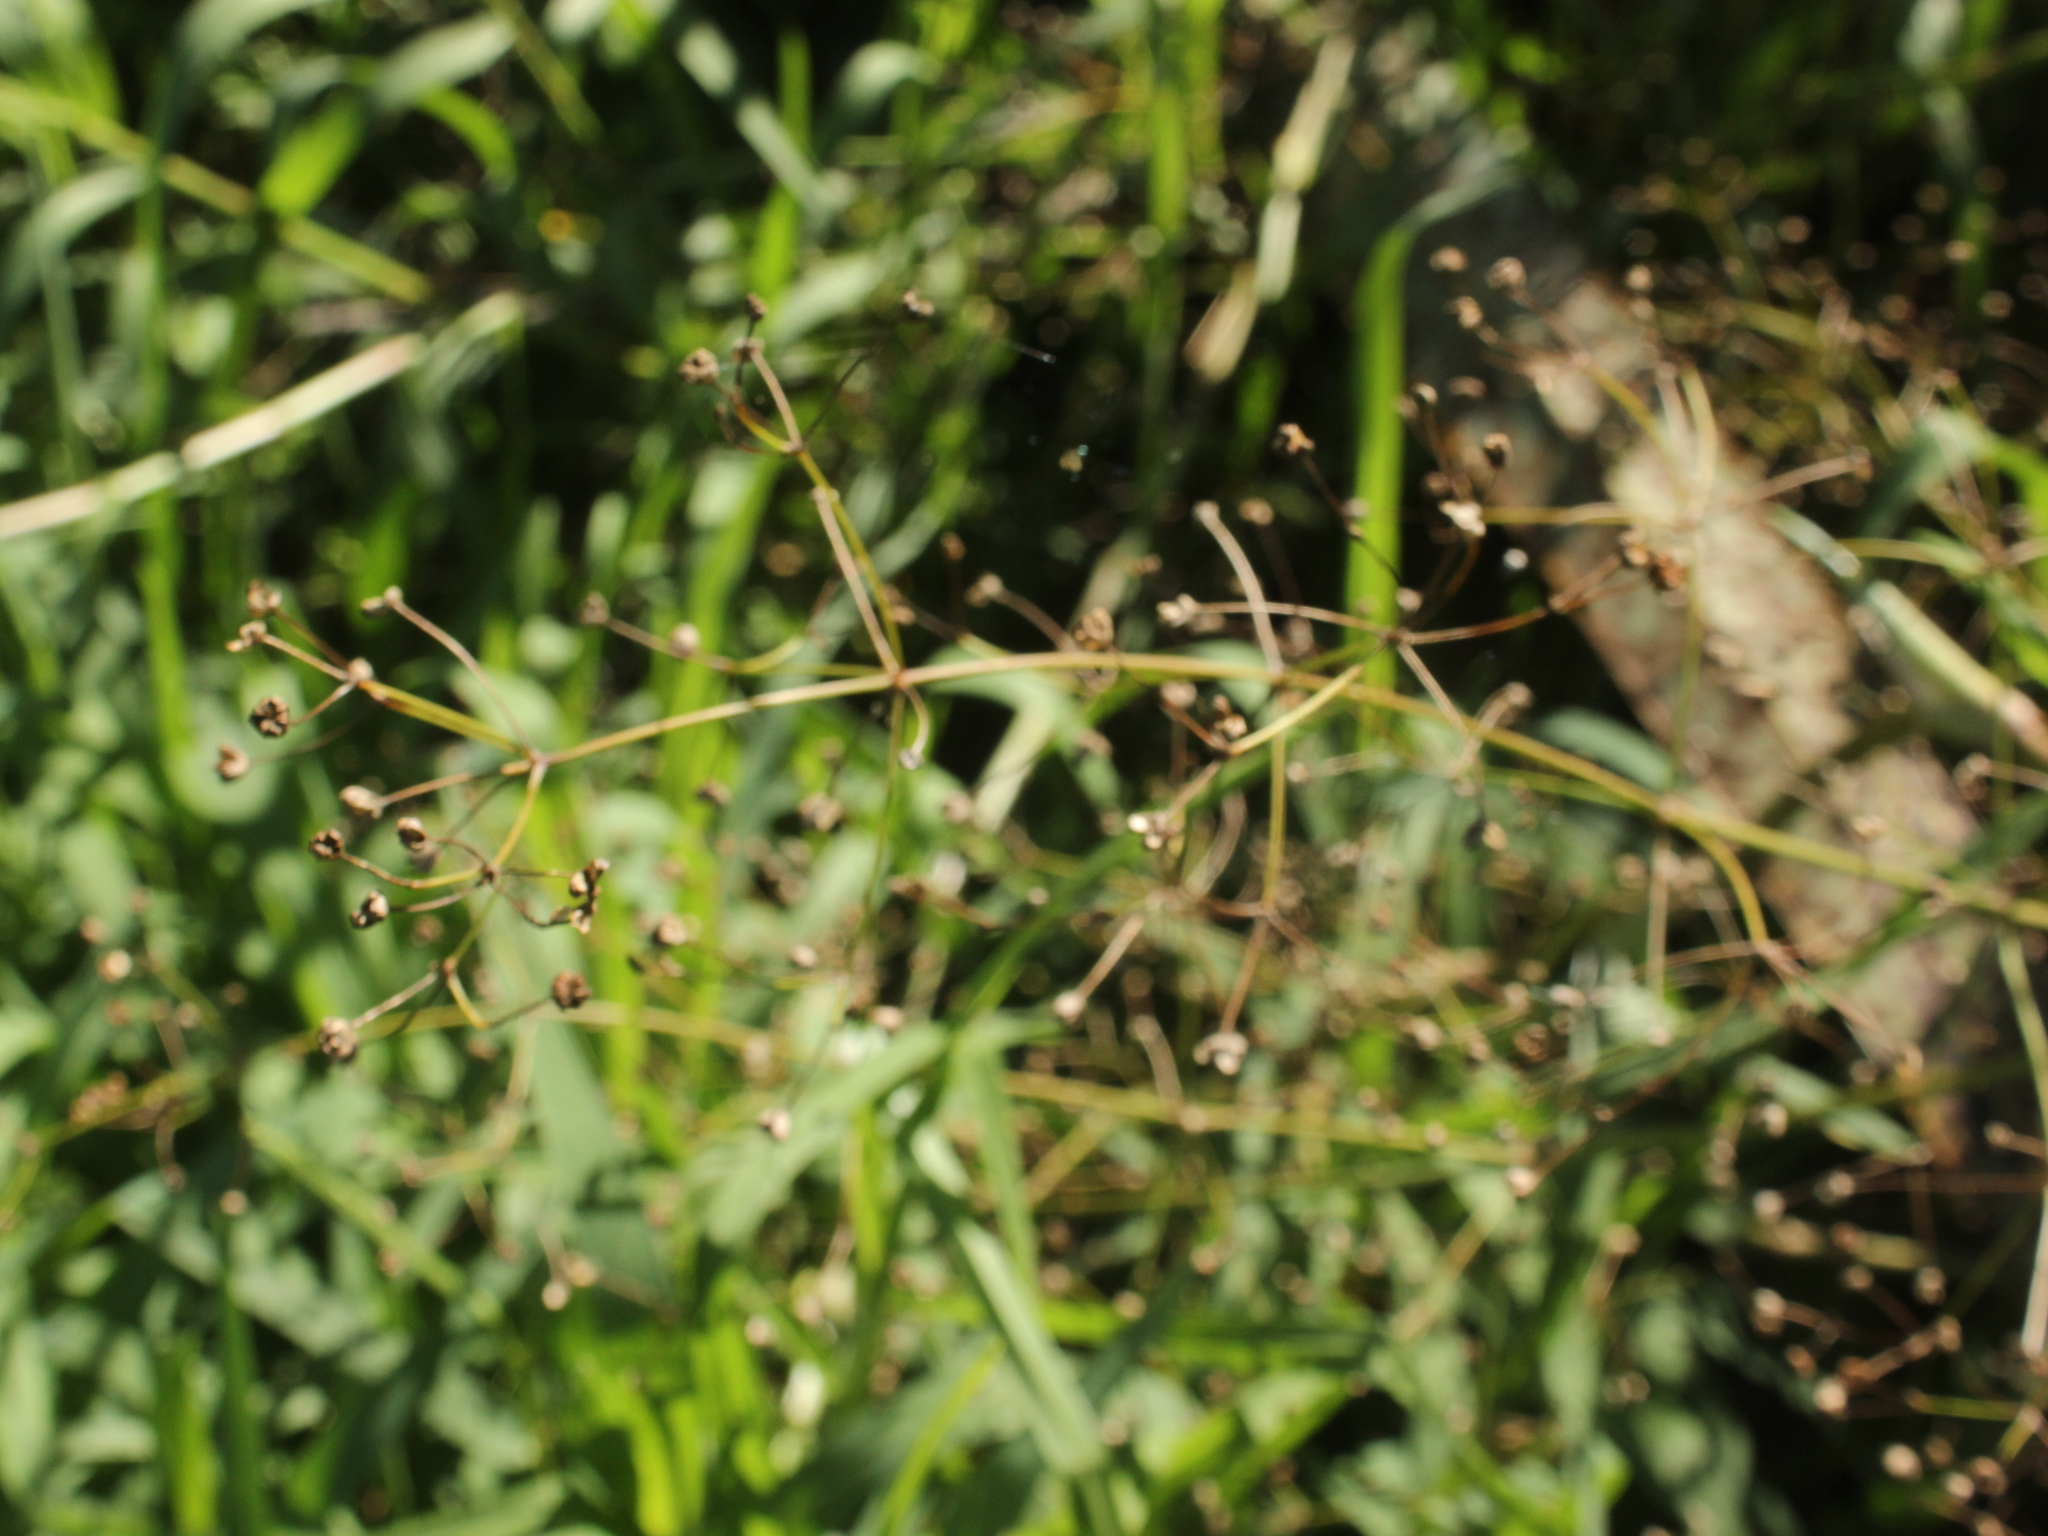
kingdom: Plantae
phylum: Tracheophyta
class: Liliopsida
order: Alismatales
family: Alismataceae
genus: Alisma
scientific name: Alisma plantago-aquatica
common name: Water-plantain
